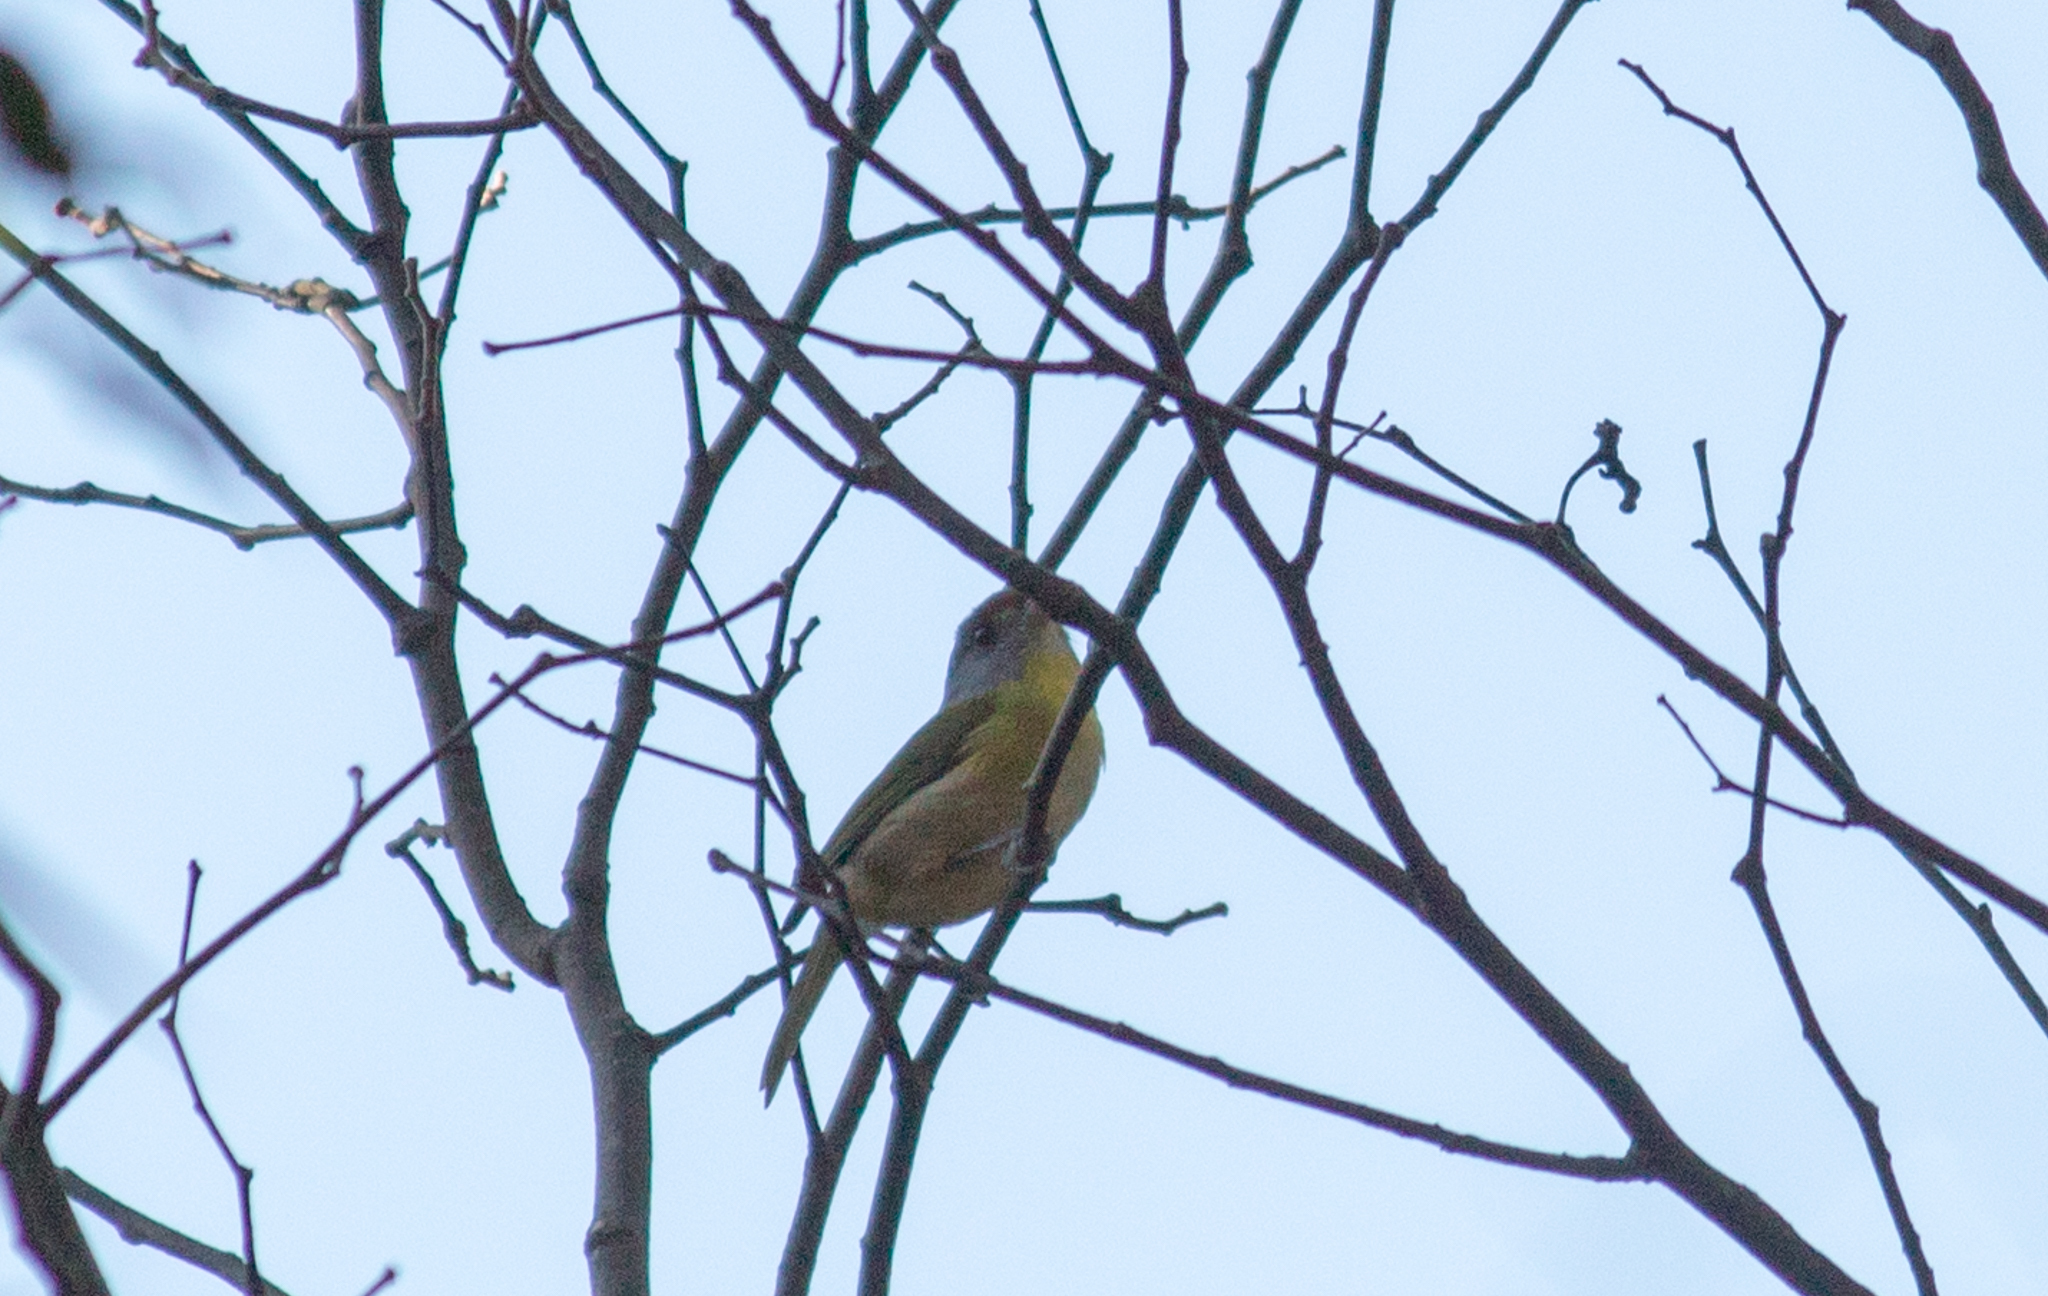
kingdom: Animalia
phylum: Chordata
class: Aves
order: Passeriformes
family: Vireonidae
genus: Cyclarhis
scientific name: Cyclarhis gujanensis
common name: Rufous-browed peppershrike
